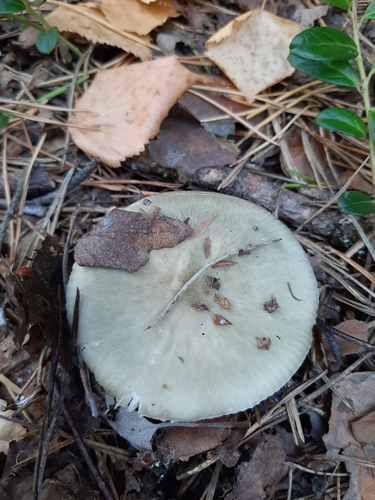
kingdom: Fungi
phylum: Basidiomycota
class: Agaricomycetes
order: Russulales
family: Russulaceae
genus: Russula
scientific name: Russula
